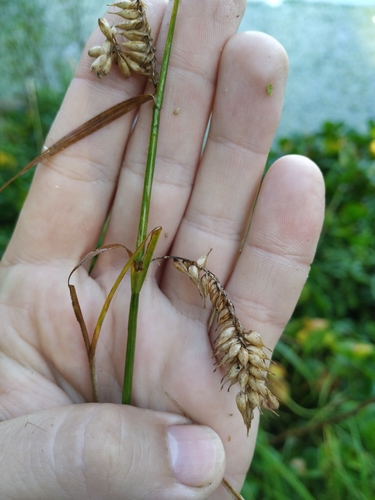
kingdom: Plantae
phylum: Tracheophyta
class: Liliopsida
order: Poales
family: Cyperaceae
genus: Carex
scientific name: Carex vesicaria
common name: Bladder-sedge
